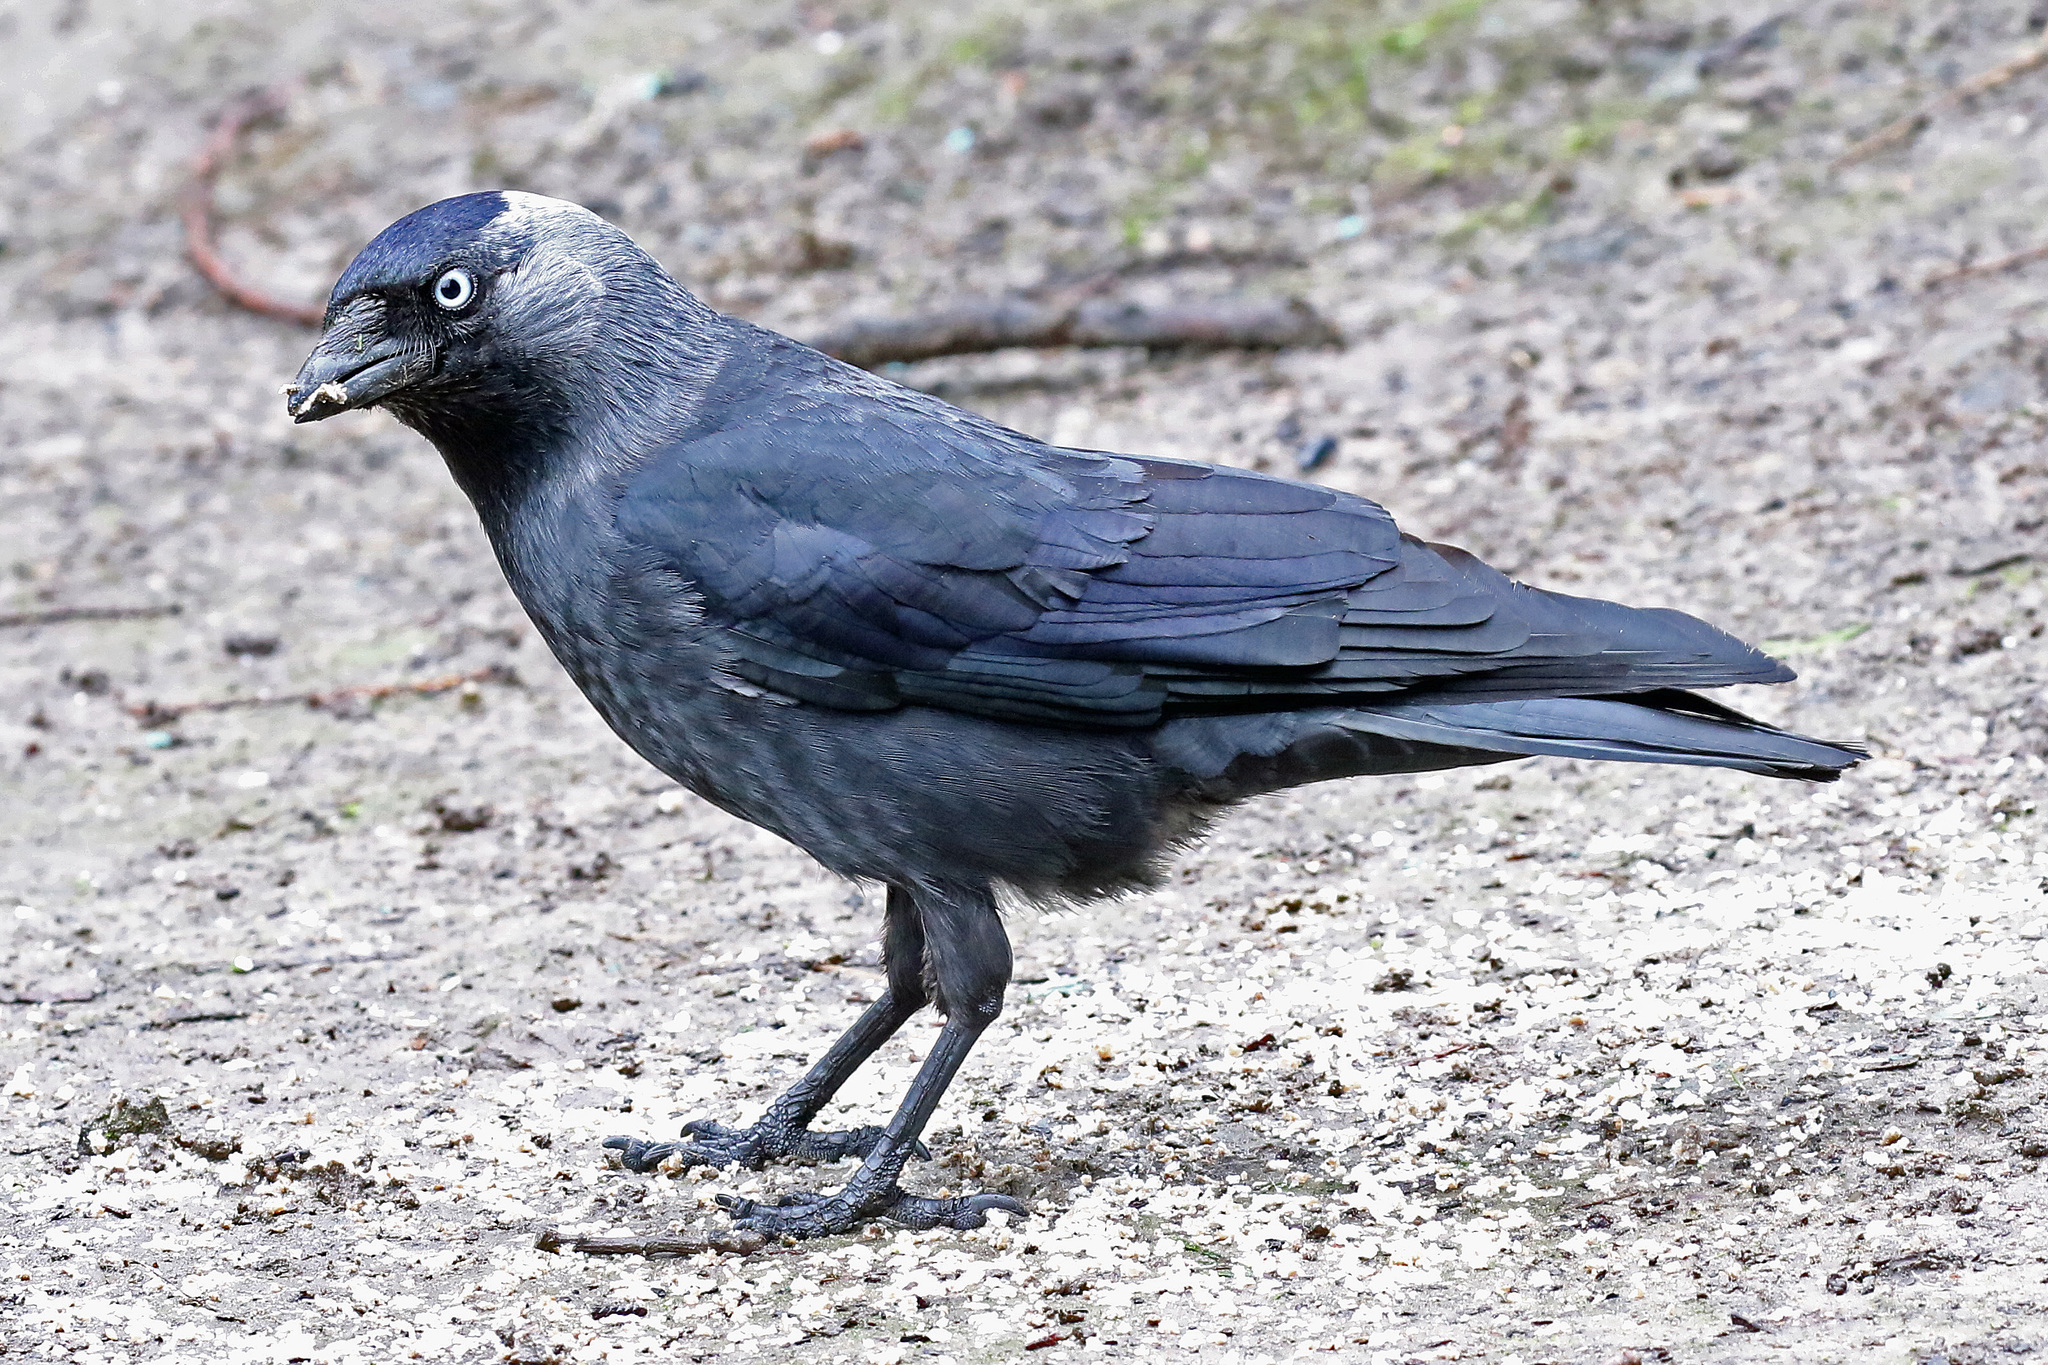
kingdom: Animalia
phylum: Chordata
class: Aves
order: Passeriformes
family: Corvidae
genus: Coloeus
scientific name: Coloeus monedula
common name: Western jackdaw
